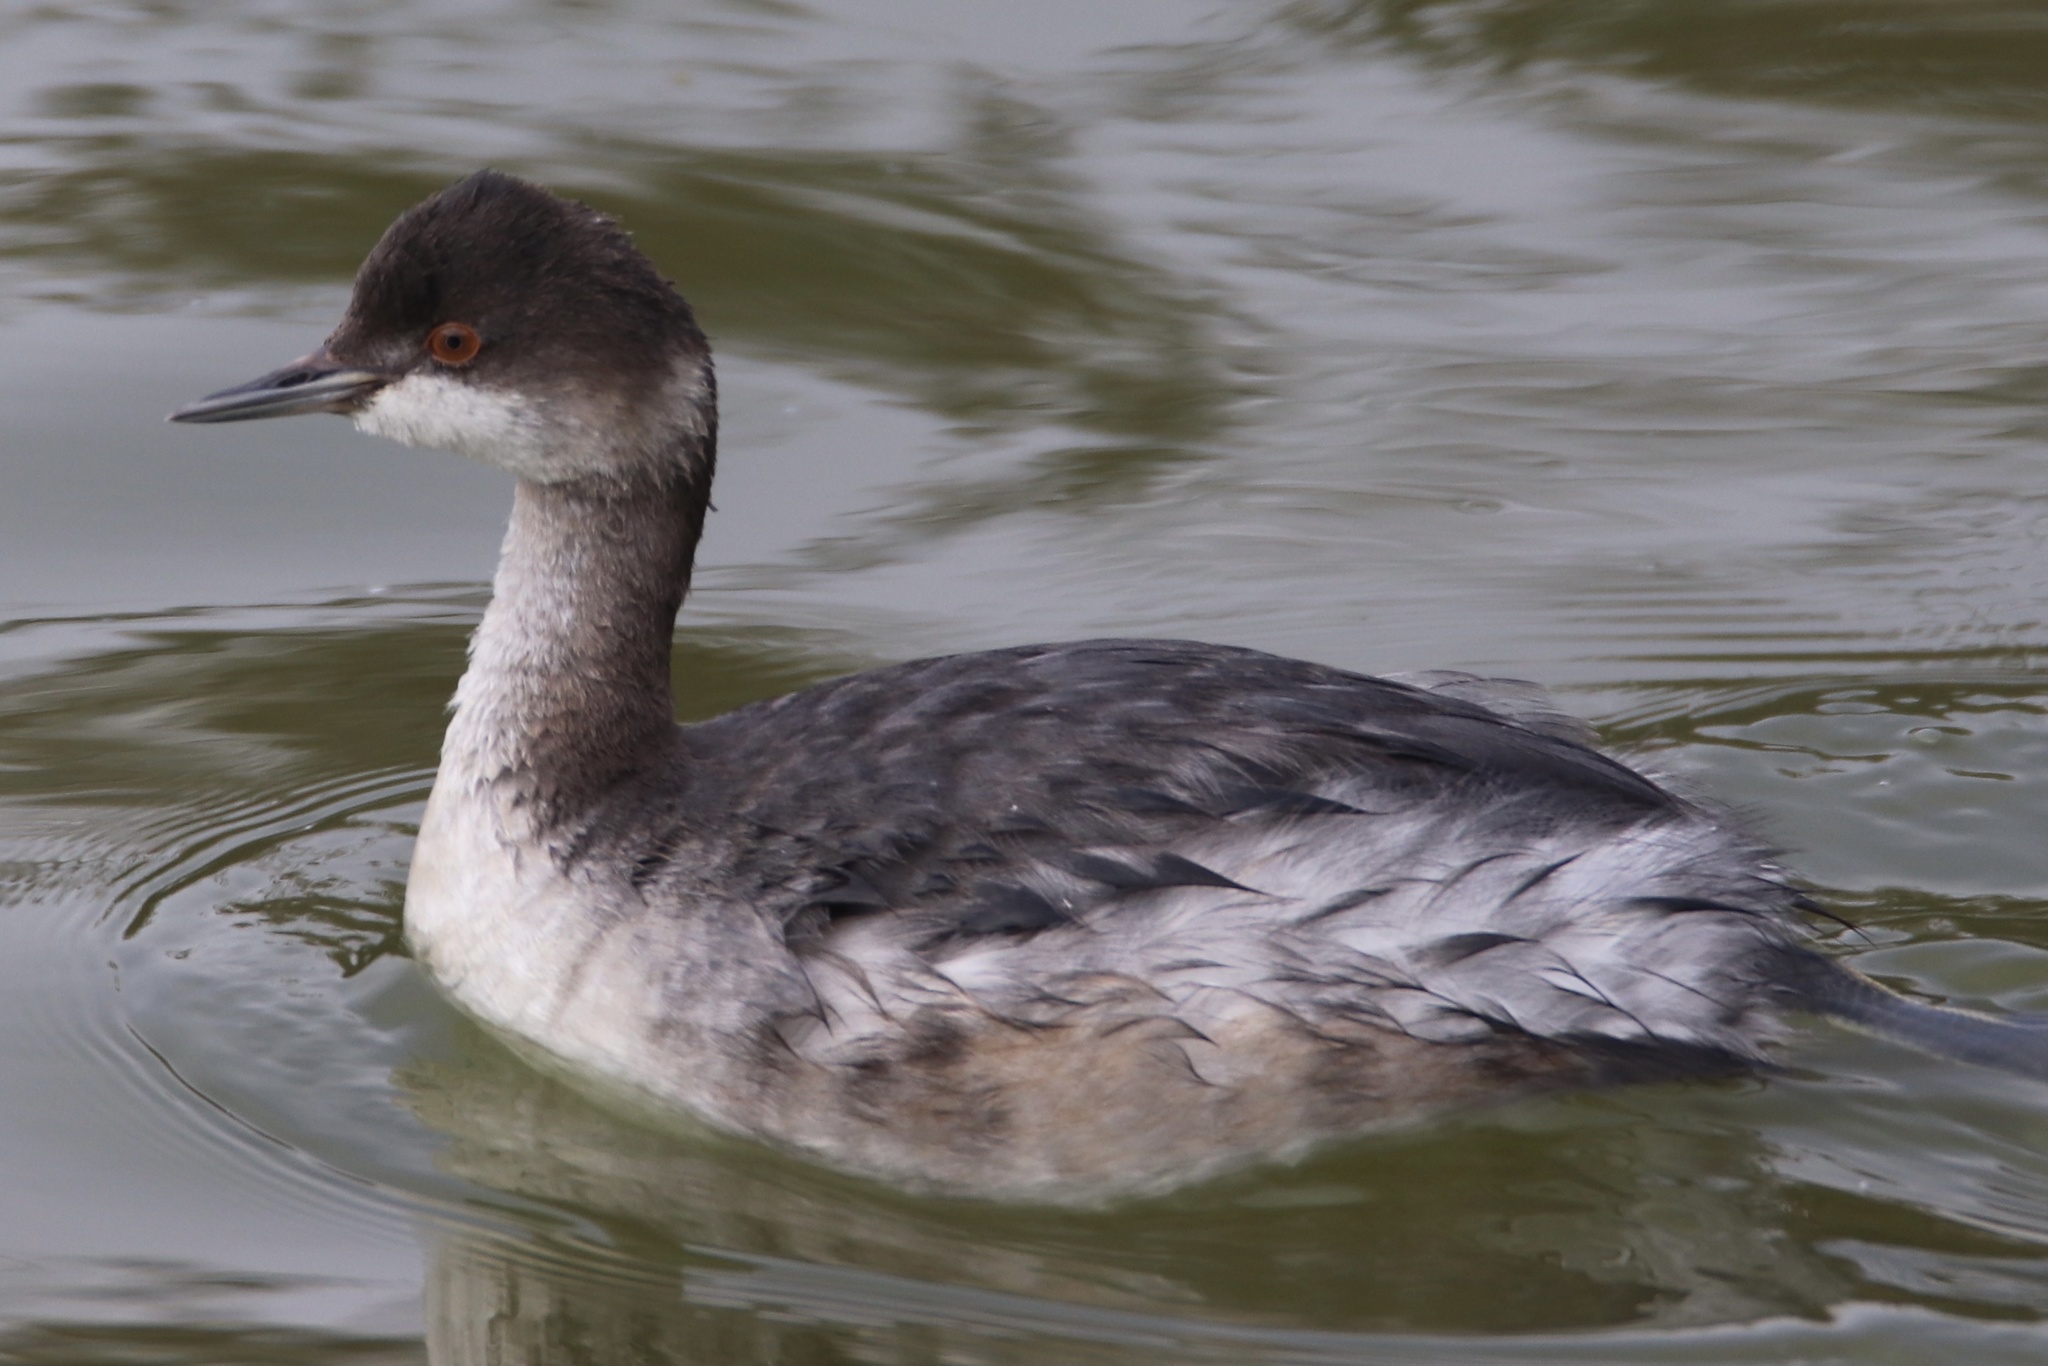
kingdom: Animalia
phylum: Chordata
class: Aves
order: Podicipediformes
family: Podicipedidae
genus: Podiceps
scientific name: Podiceps nigricollis
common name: Black-necked grebe
